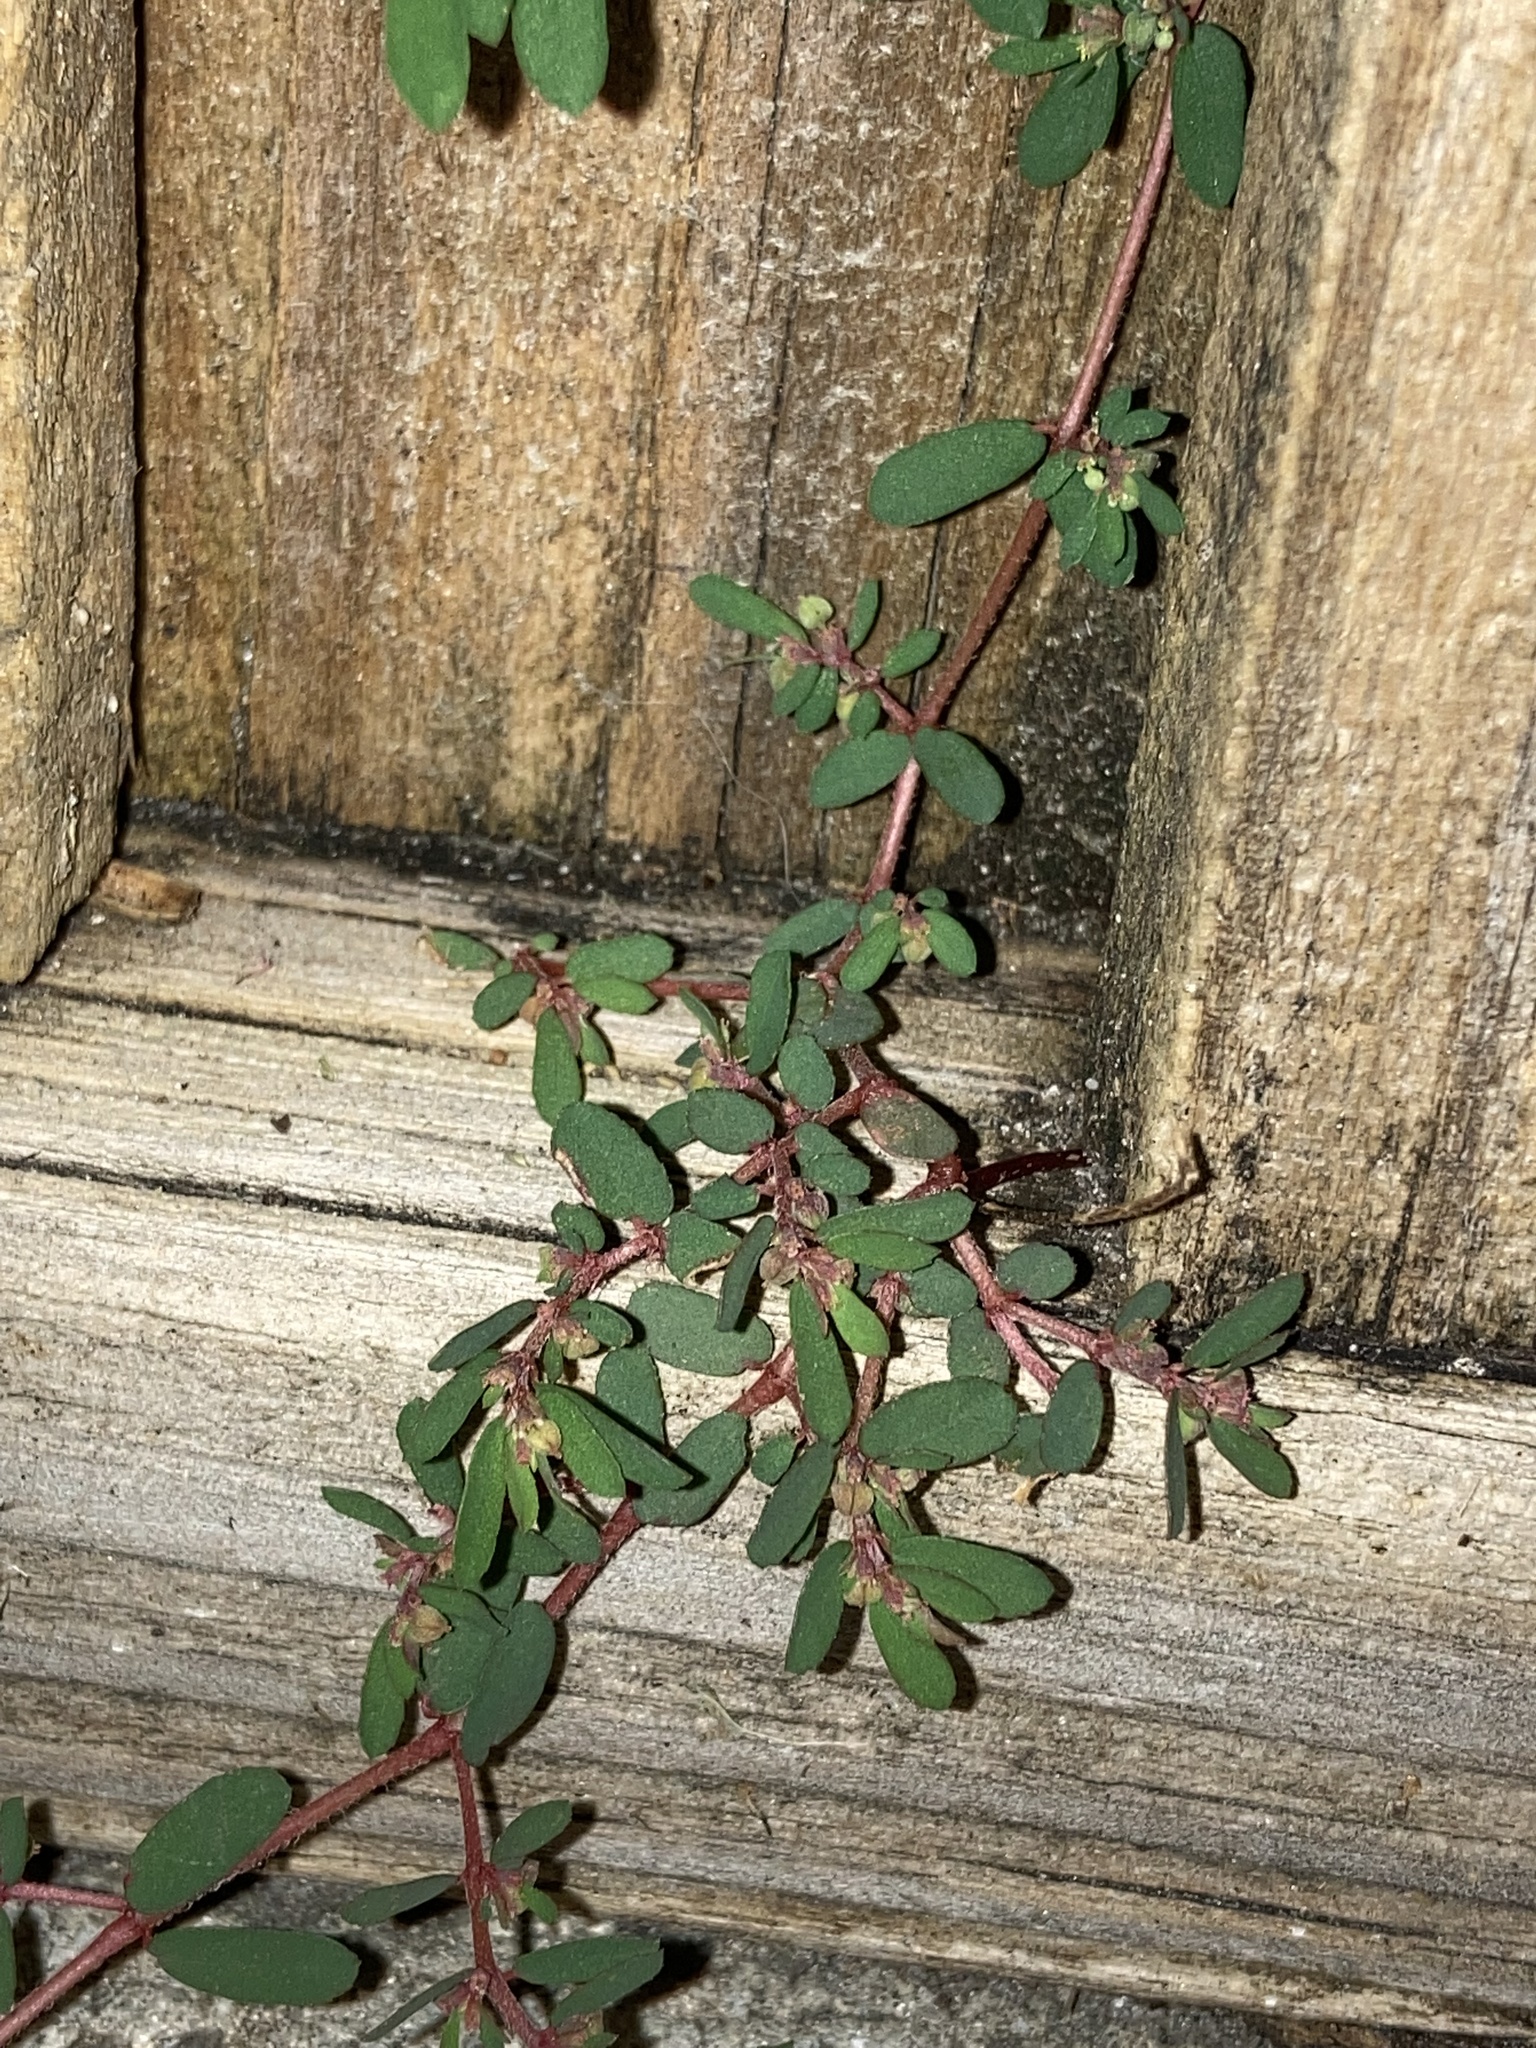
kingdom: Plantae
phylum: Tracheophyta
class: Magnoliopsida
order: Malpighiales
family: Euphorbiaceae
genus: Euphorbia
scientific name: Euphorbia maculata
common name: Spotted spurge
